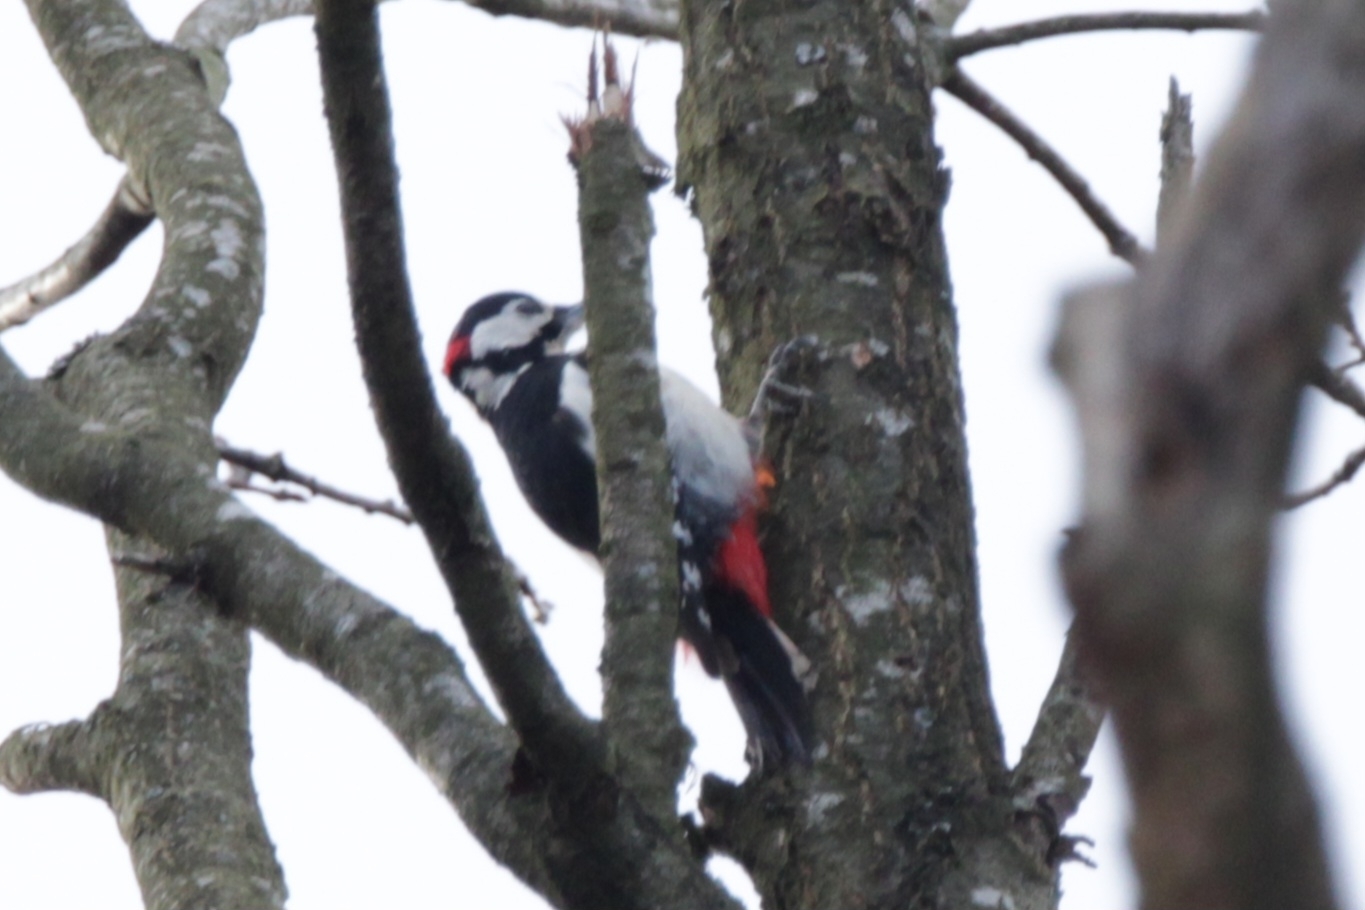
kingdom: Animalia
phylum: Chordata
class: Aves
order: Piciformes
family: Picidae
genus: Dendrocopos
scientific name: Dendrocopos major
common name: Great spotted woodpecker
